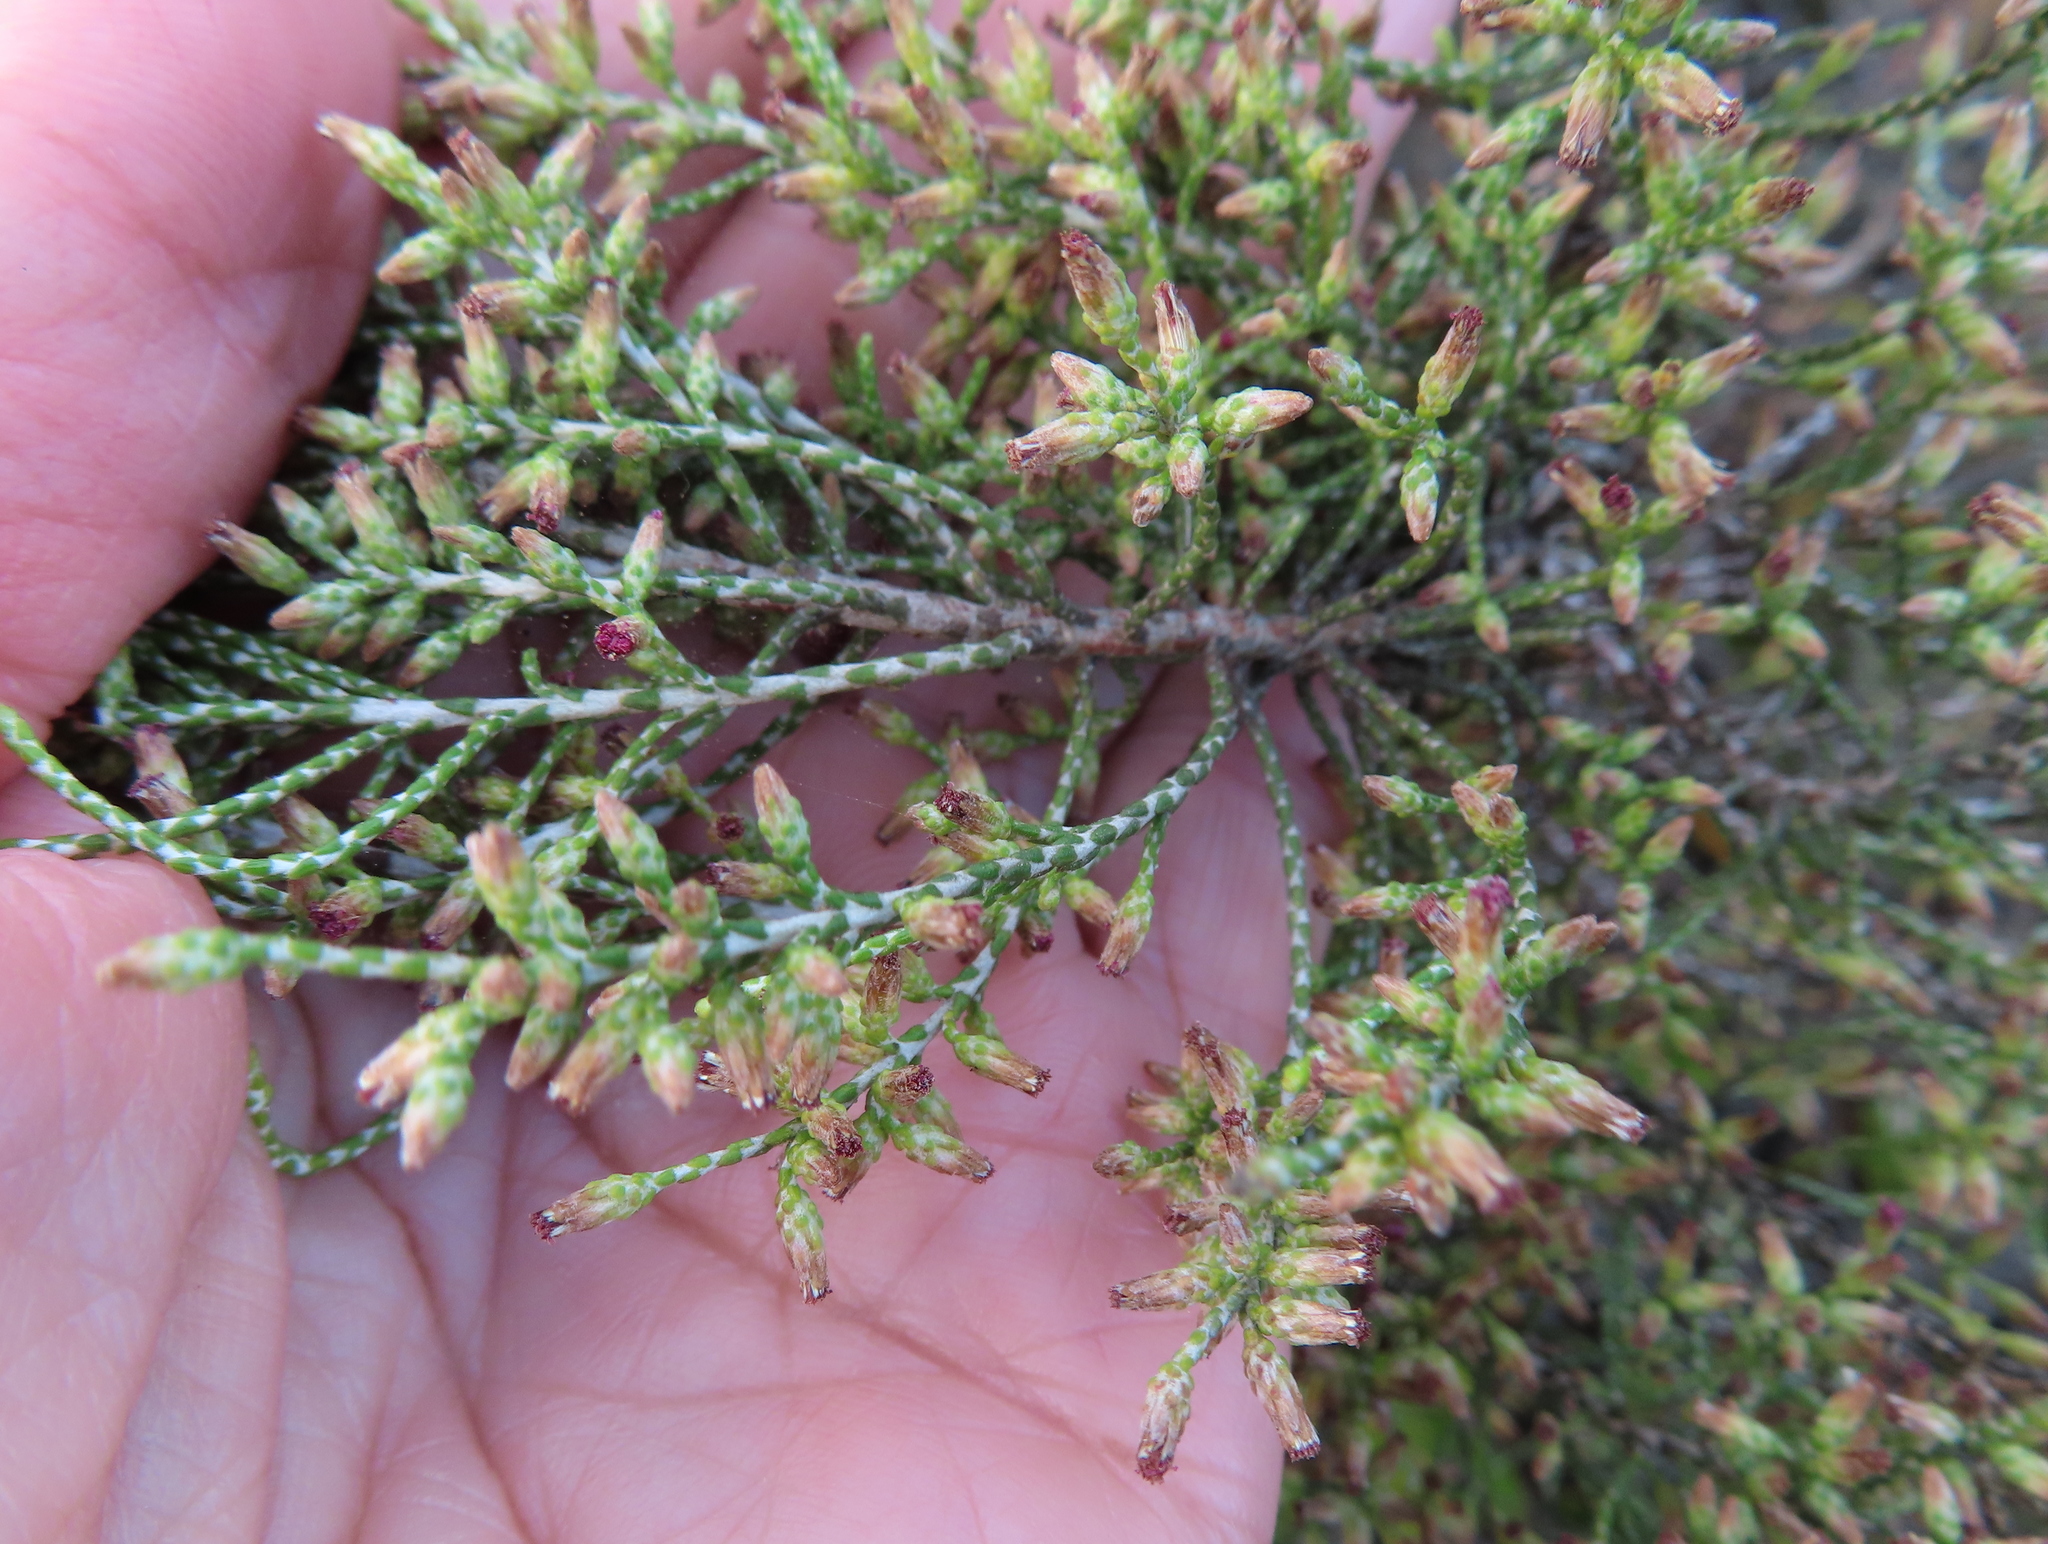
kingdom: Plantae
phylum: Tracheophyta
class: Magnoliopsida
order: Asterales
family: Asteraceae
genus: Dicerothamnus
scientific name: Dicerothamnus rhinocerotis
